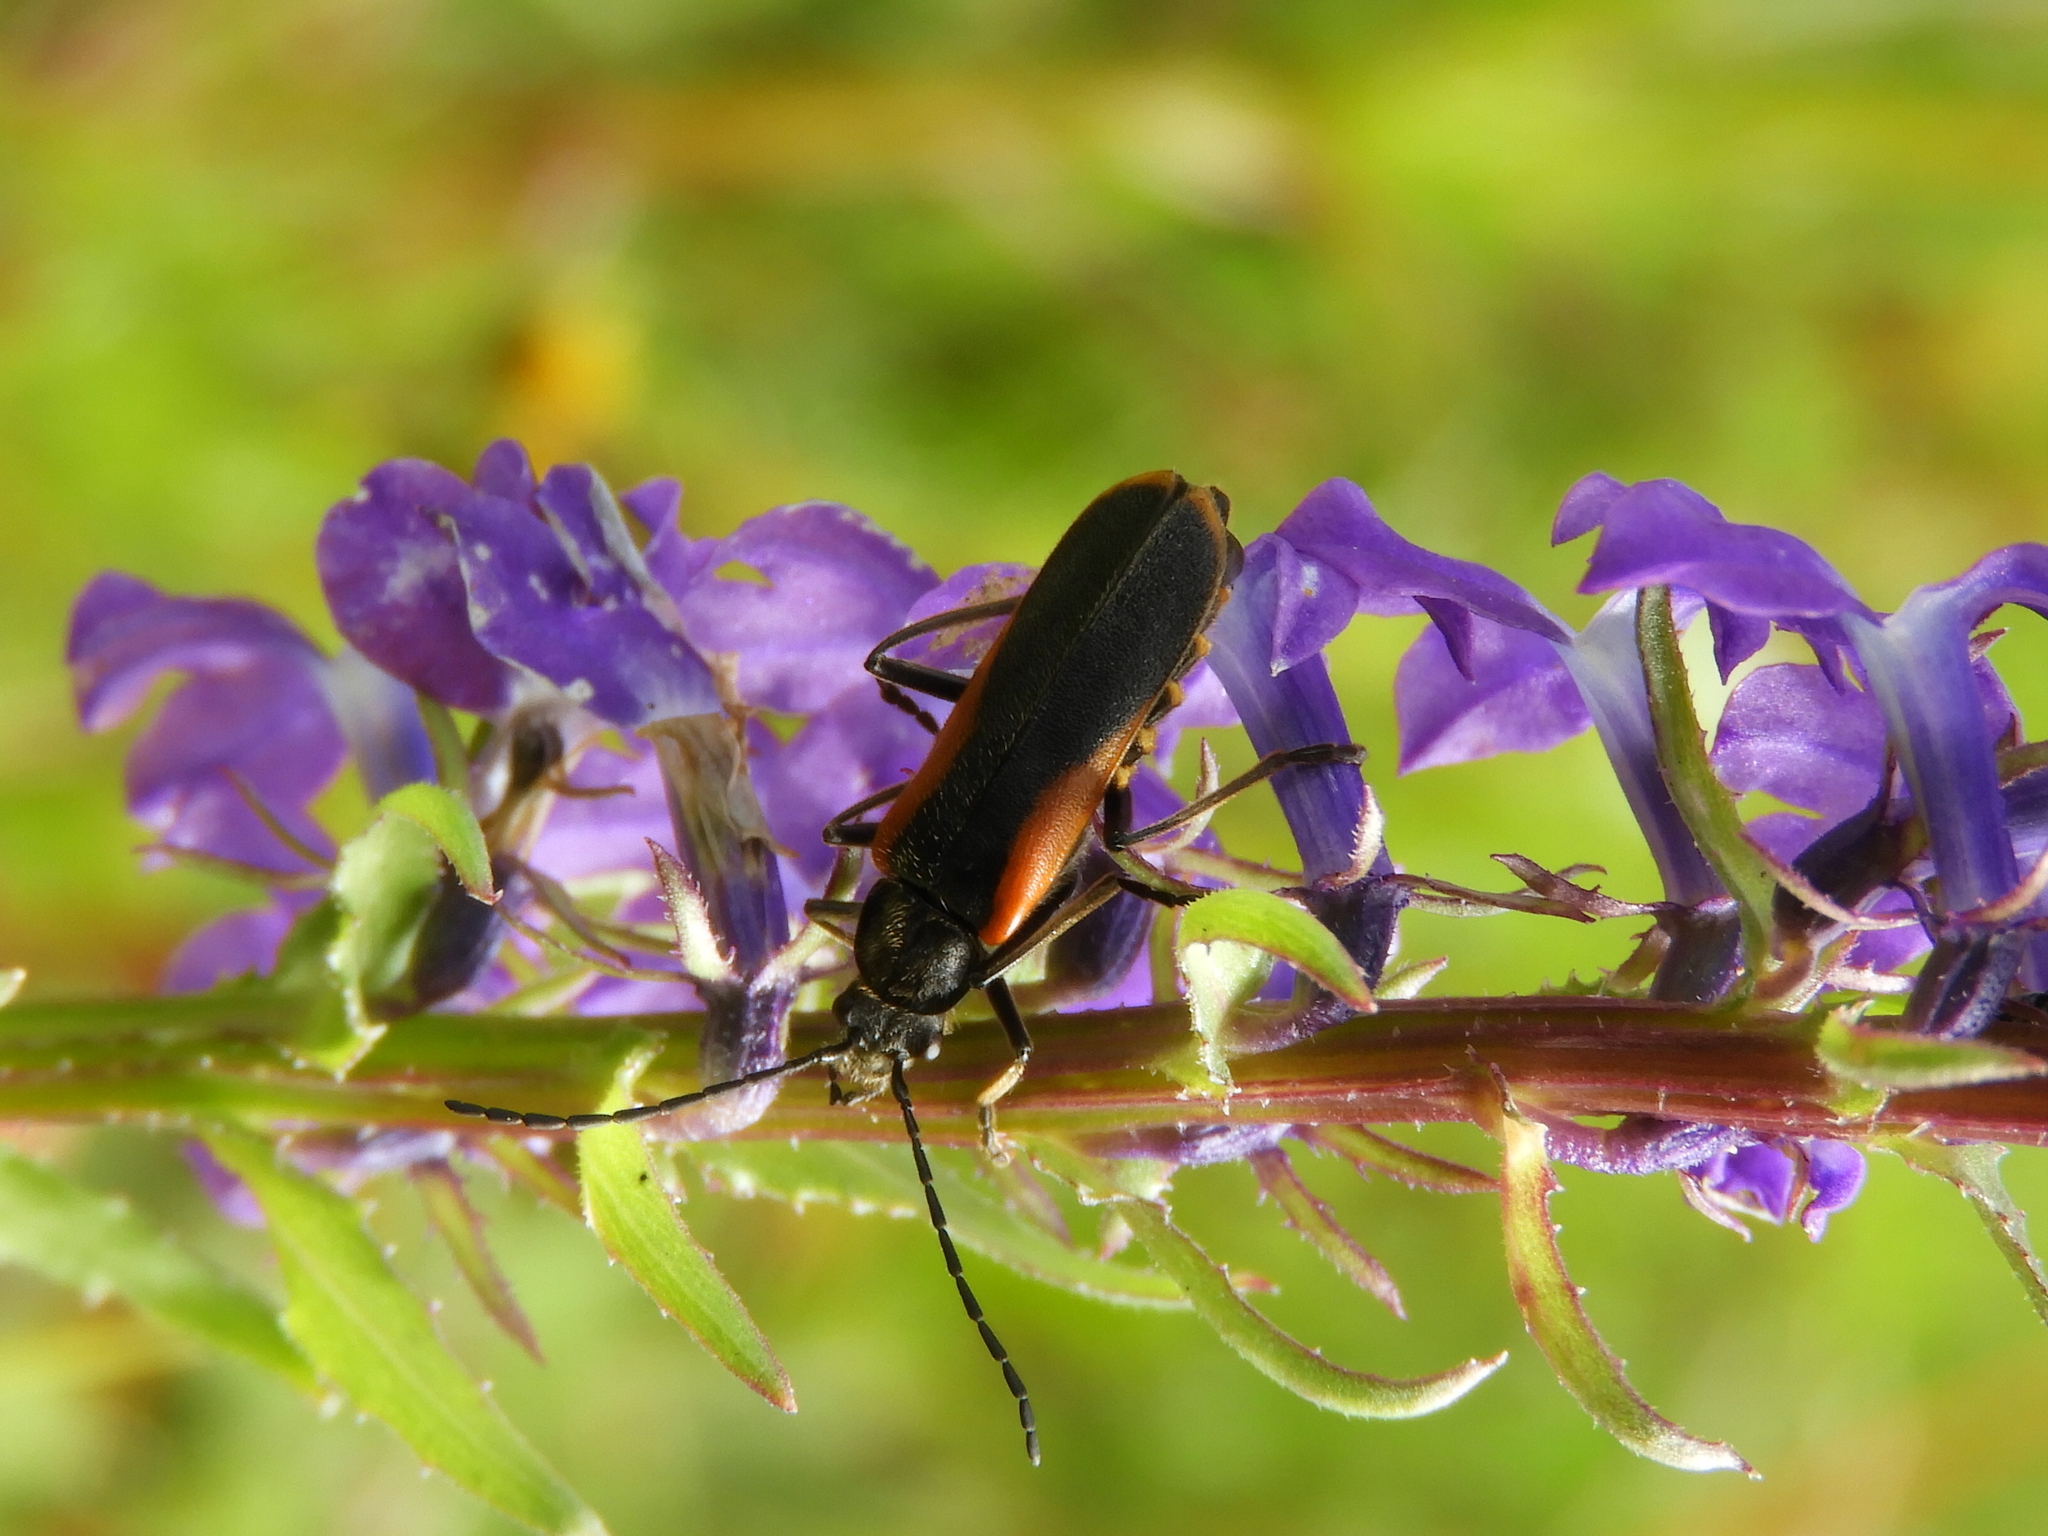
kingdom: Animalia
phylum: Arthropoda
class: Insecta
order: Coleoptera
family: Cantharidae
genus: Chauliognathus
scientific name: Chauliognathus limbicollis
